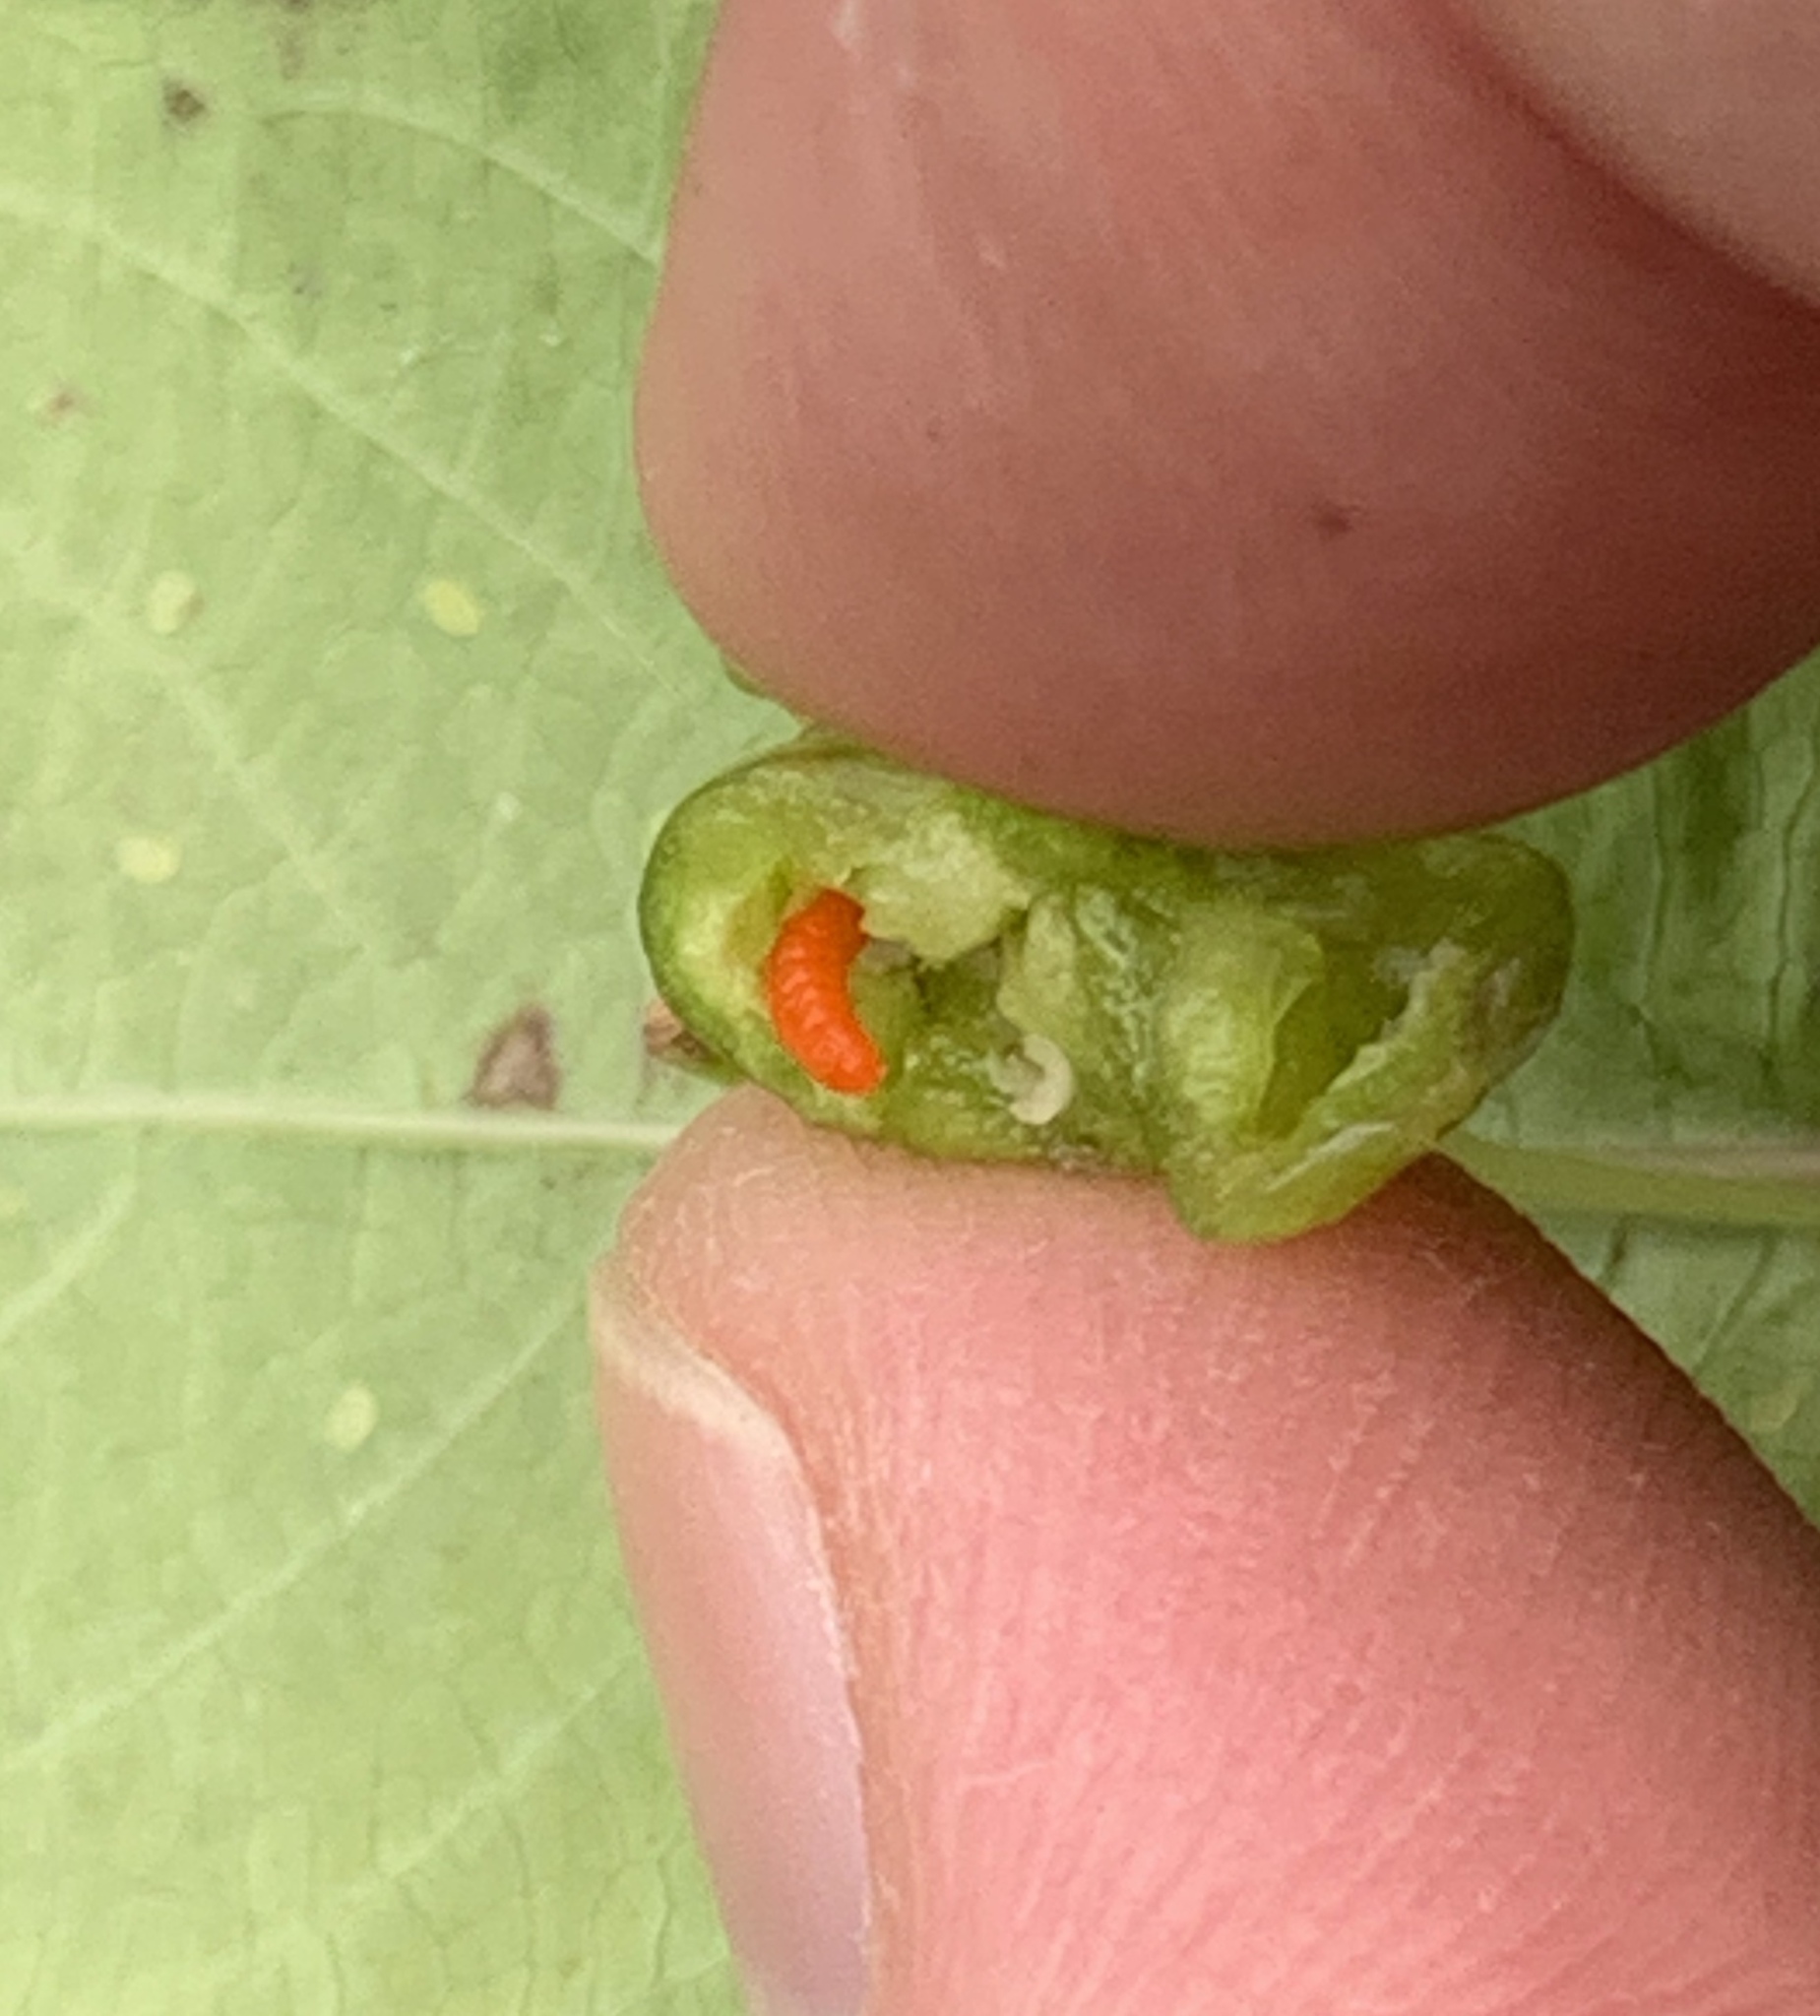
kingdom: Animalia
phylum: Arthropoda
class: Insecta
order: Diptera
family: Cecidomyiidae
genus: Schizomyia
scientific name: Schizomyia impatientis
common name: Jewelweed gall midge
